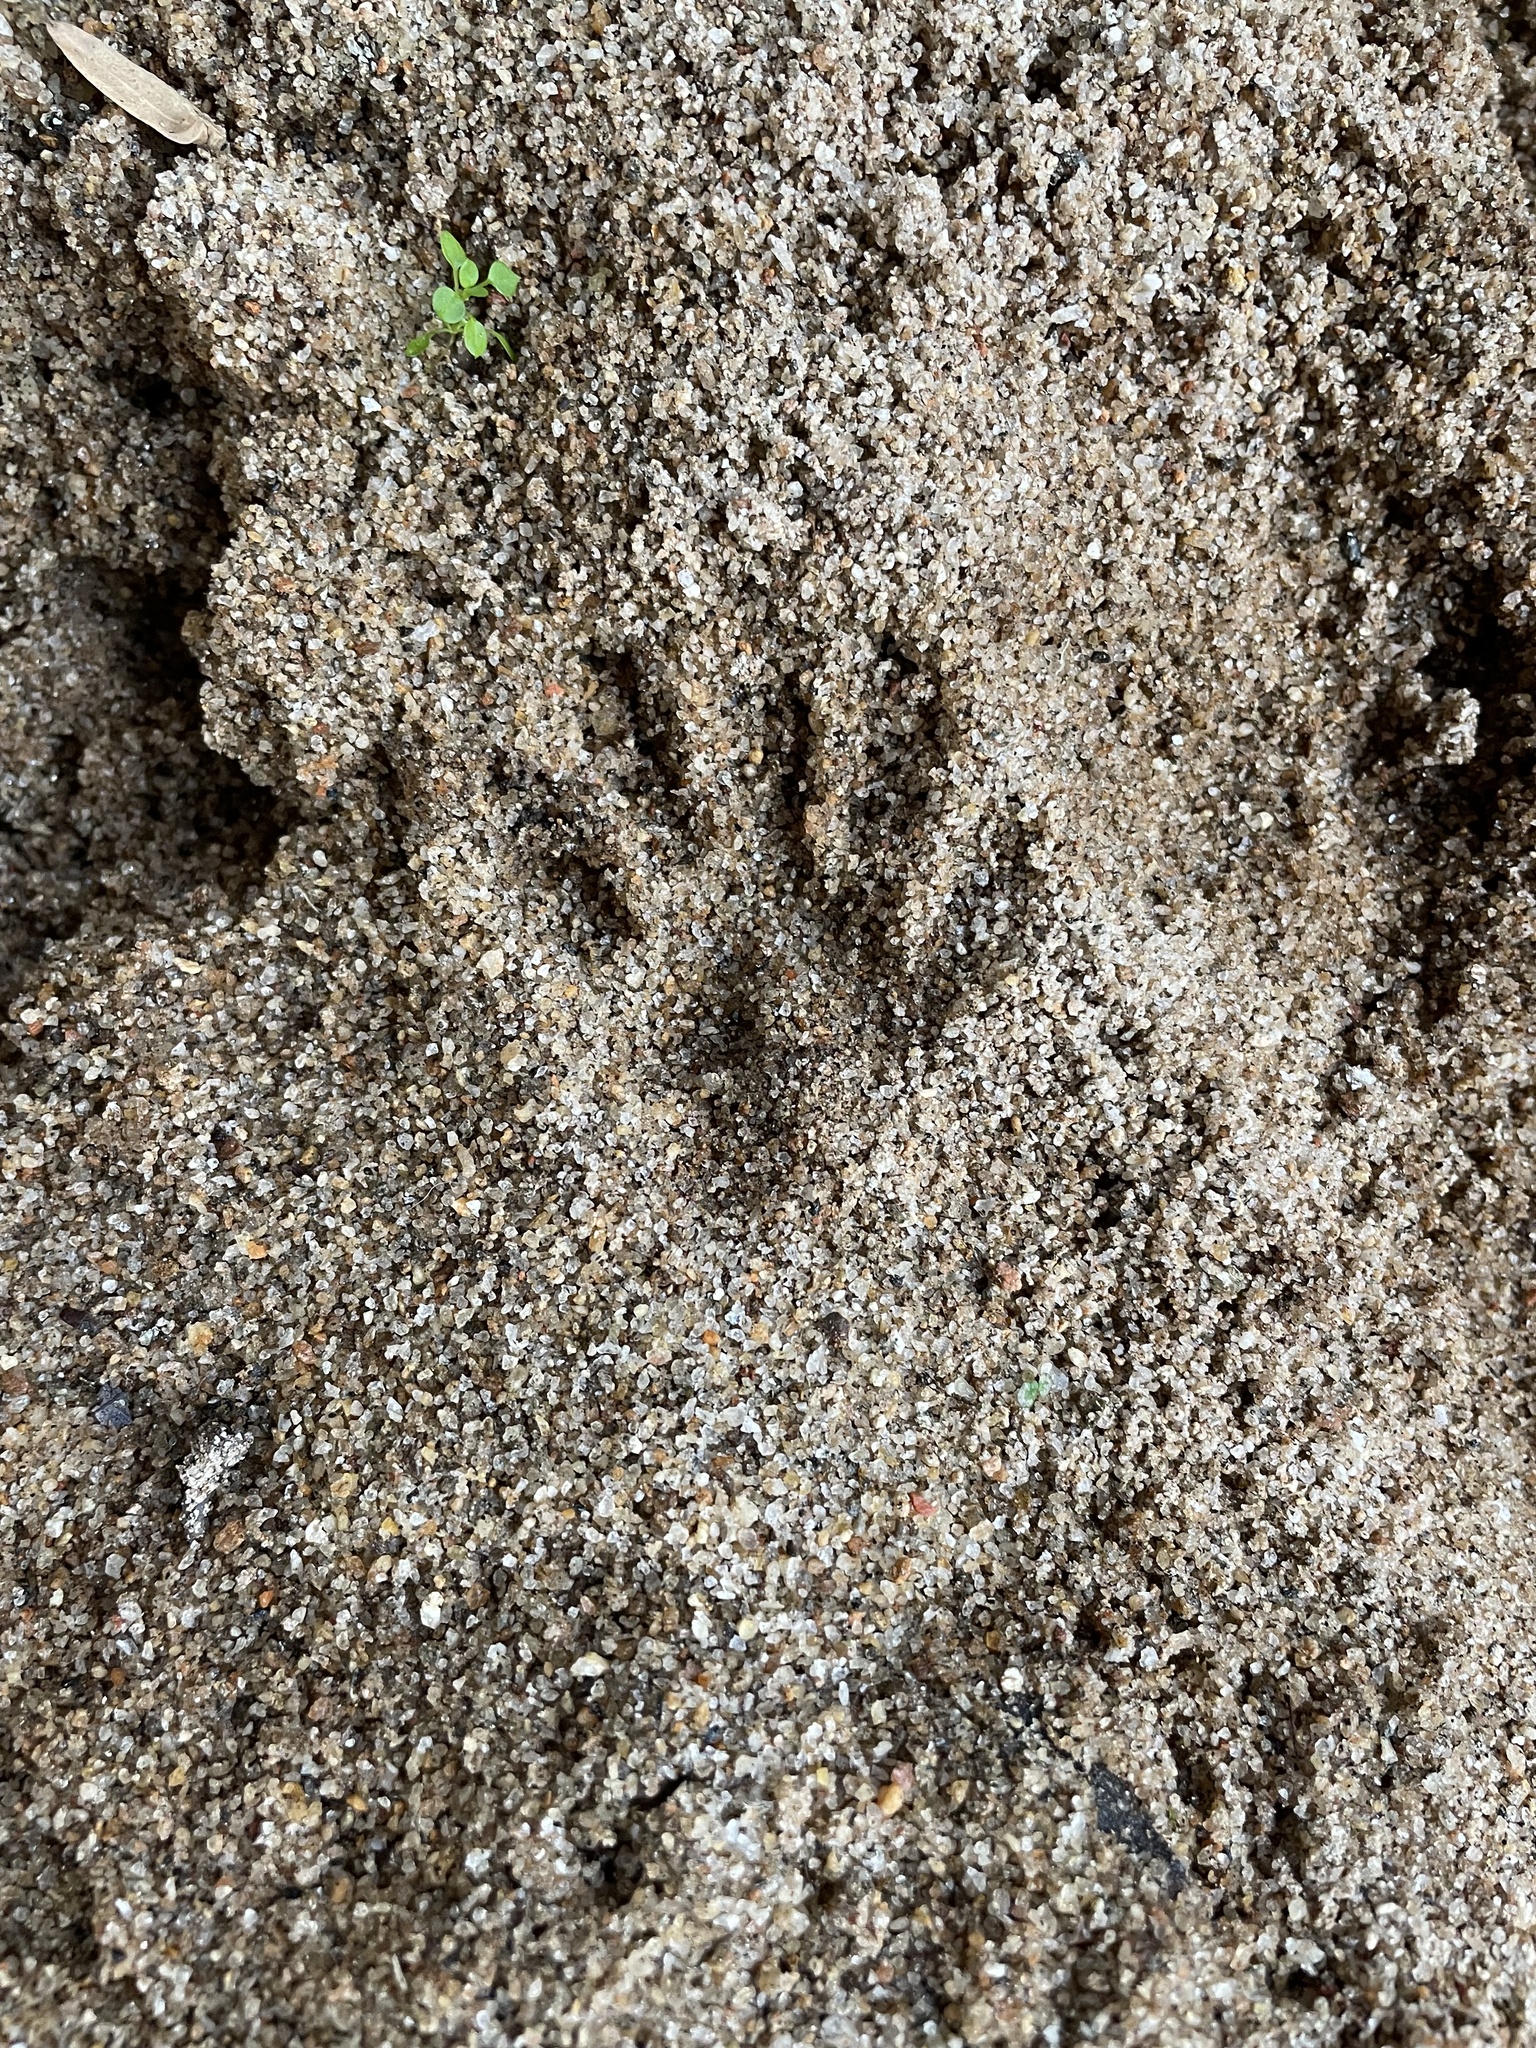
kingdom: Animalia
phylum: Chordata
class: Mammalia
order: Carnivora
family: Procyonidae
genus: Procyon
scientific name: Procyon lotor
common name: Raccoon
